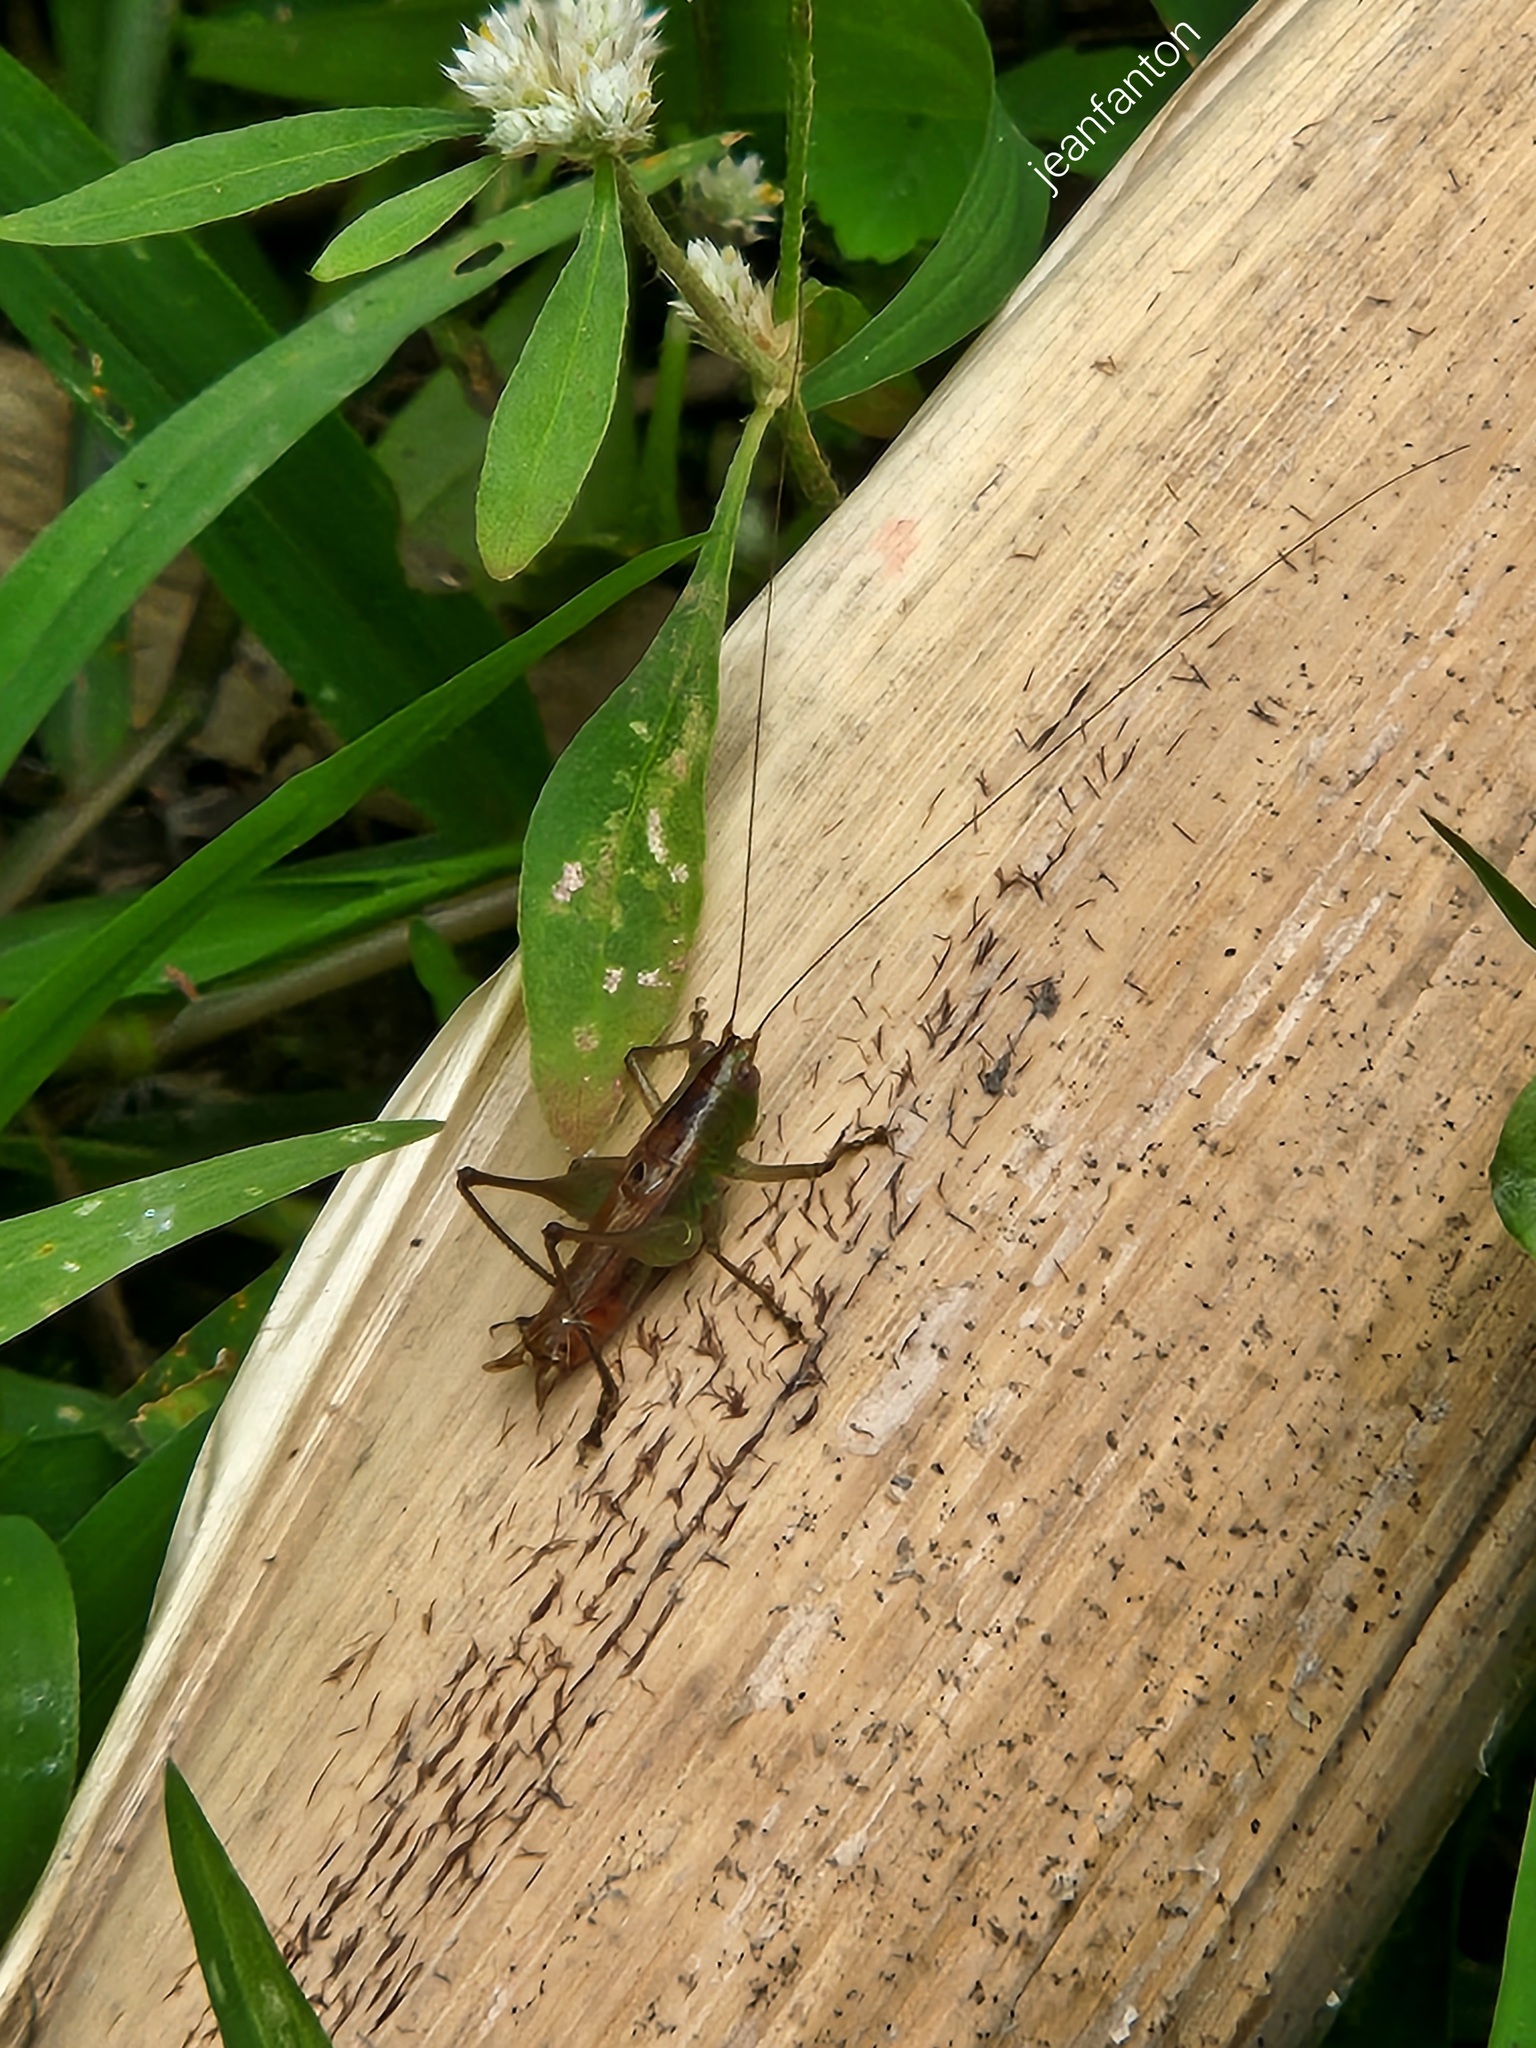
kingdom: Animalia
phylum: Arthropoda
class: Insecta
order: Orthoptera
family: Tettigoniidae
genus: Conocephalus
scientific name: Conocephalus saltator
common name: Katydid
